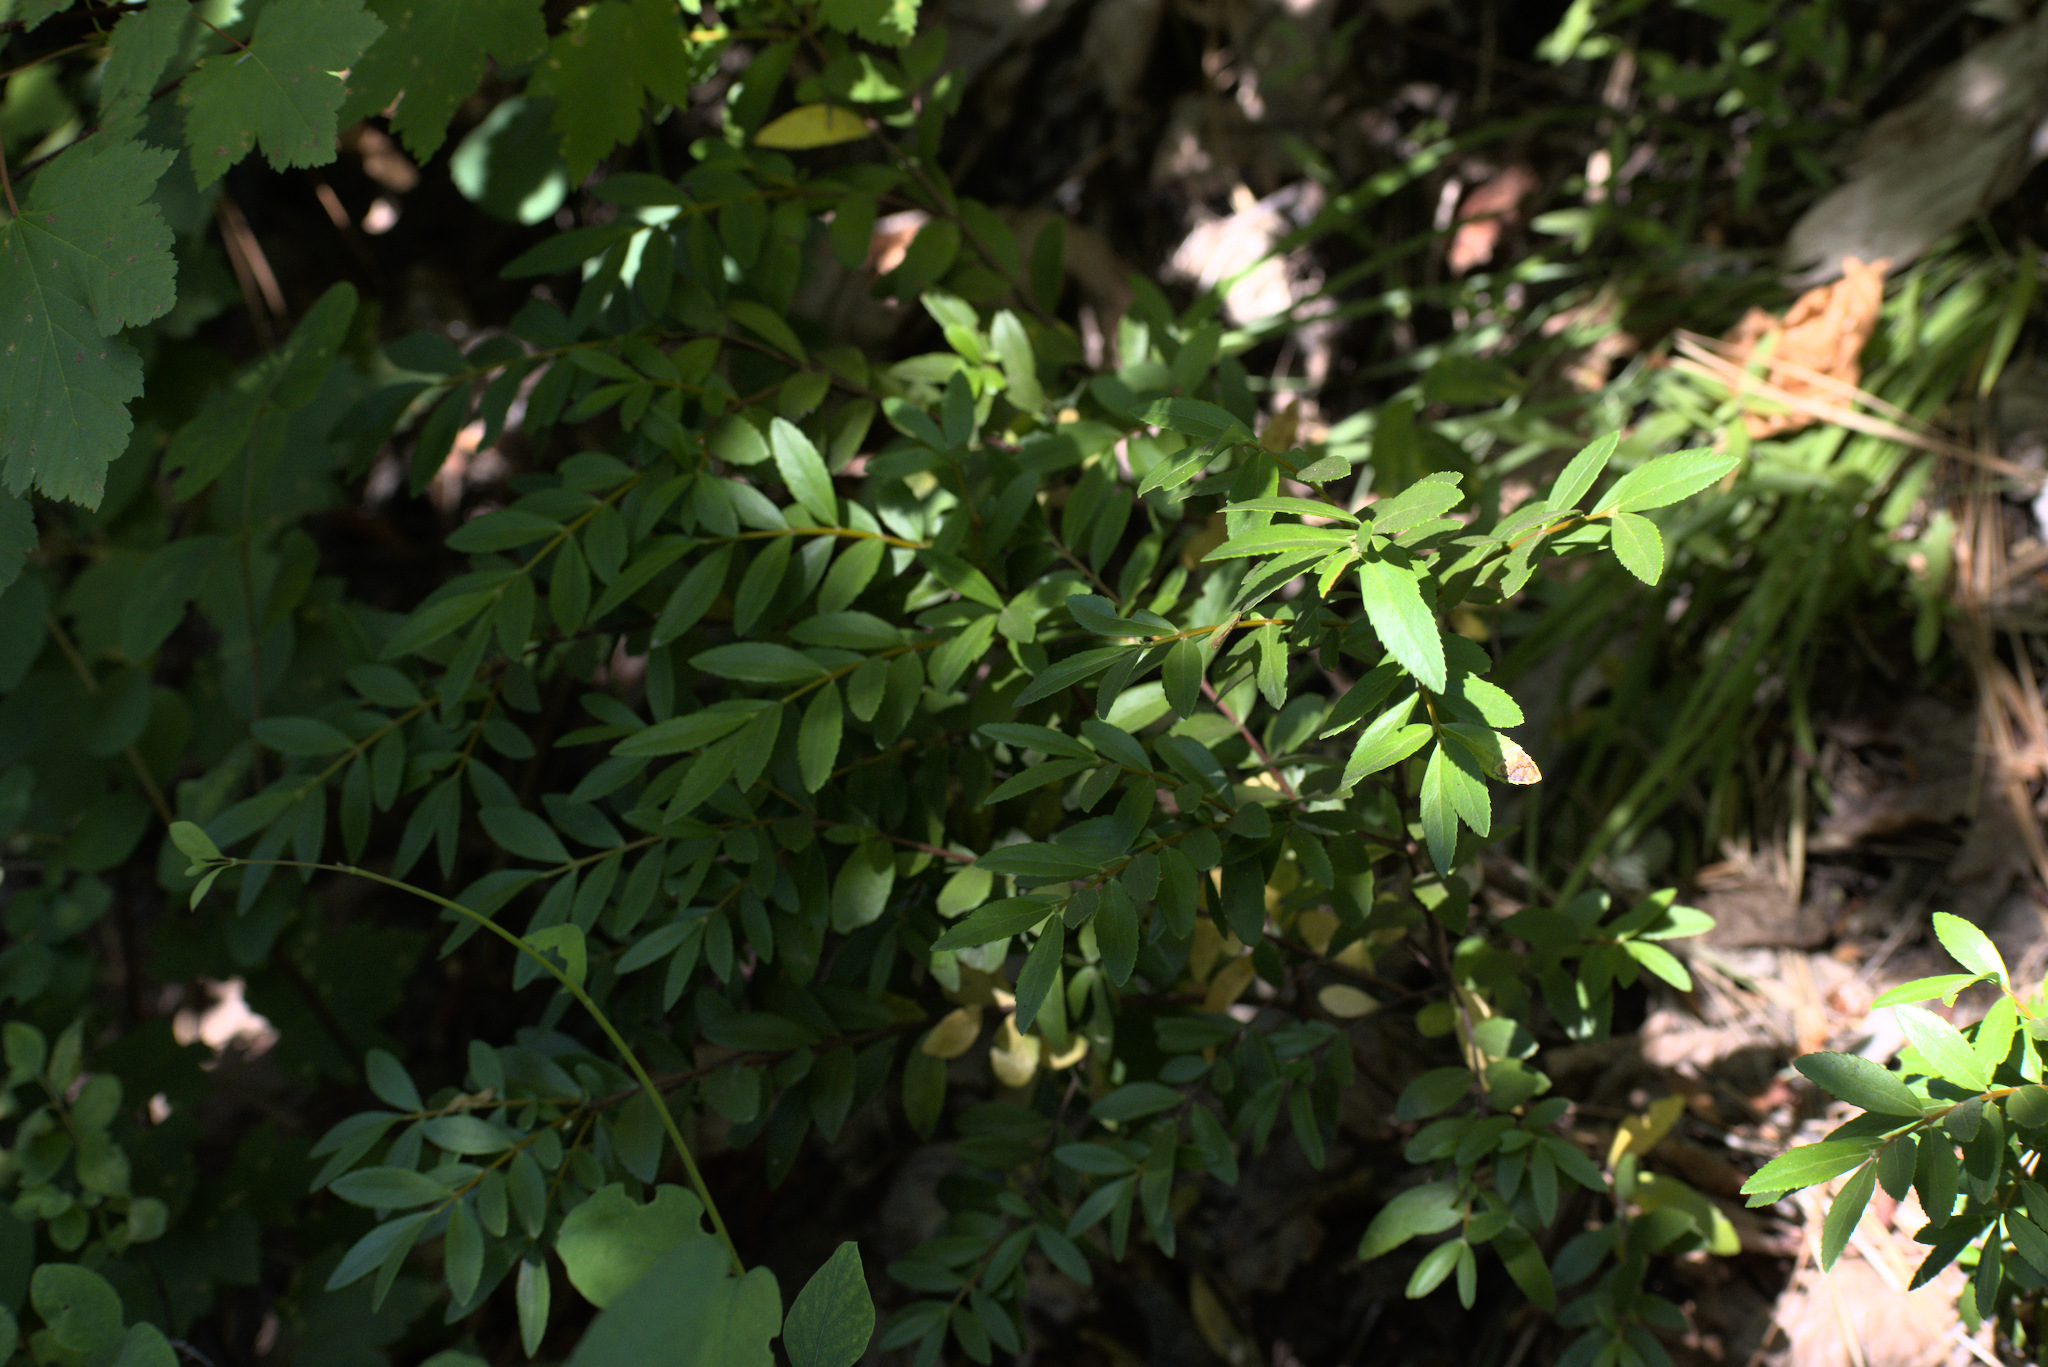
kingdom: Plantae
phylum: Tracheophyta
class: Magnoliopsida
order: Celastrales
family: Celastraceae
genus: Paxistima
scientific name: Paxistima myrsinites
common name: Mountain-lover
